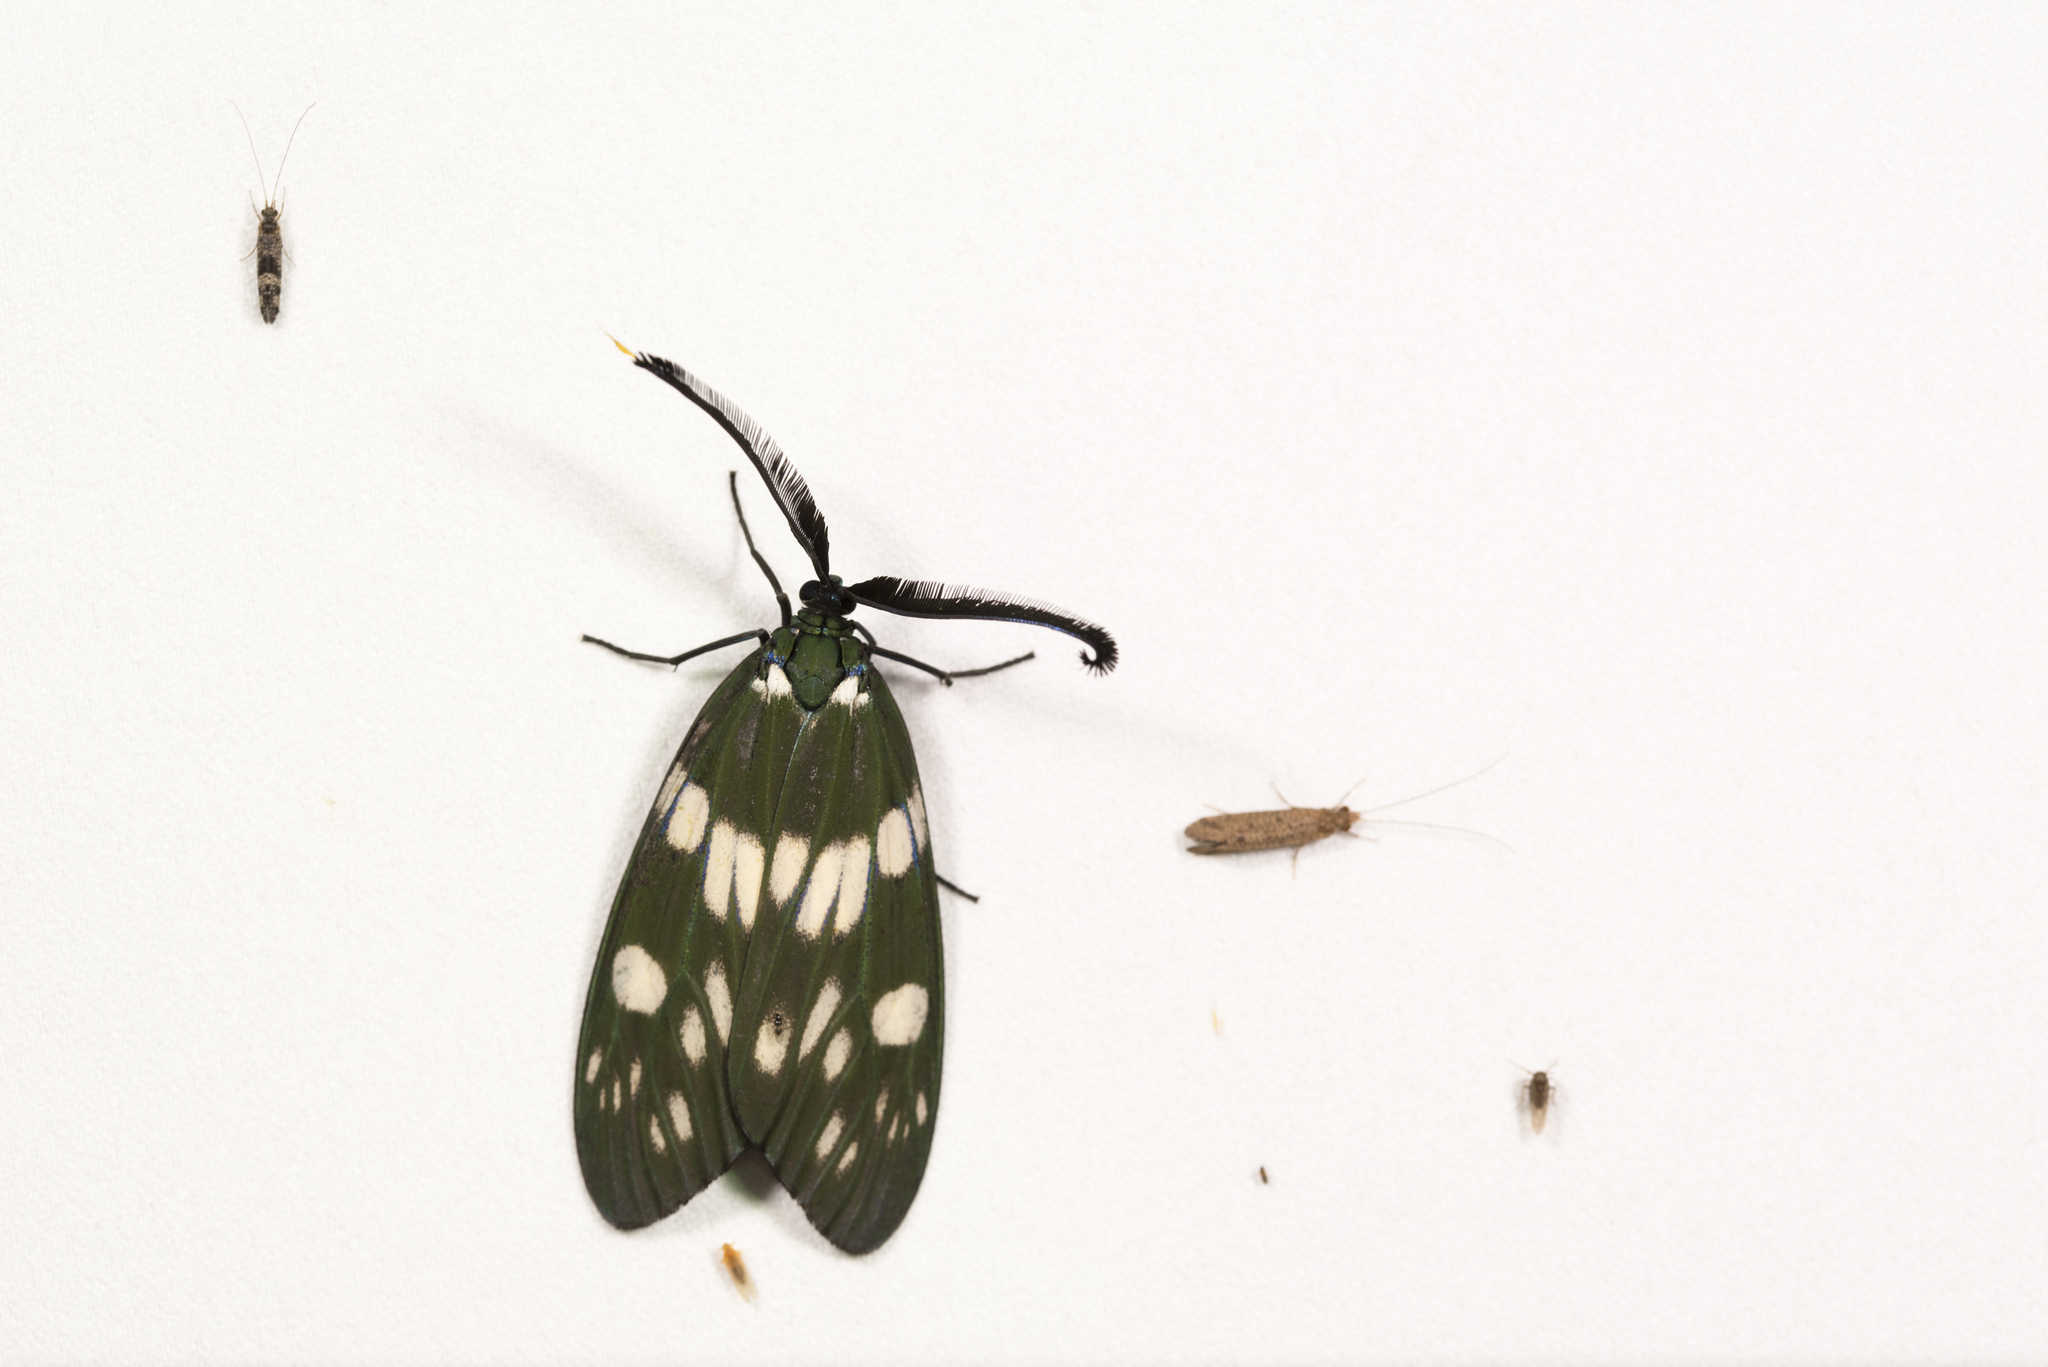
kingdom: Animalia
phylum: Arthropoda
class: Insecta
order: Lepidoptera
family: Zygaenidae
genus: Eterusia
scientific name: Eterusia aedea
